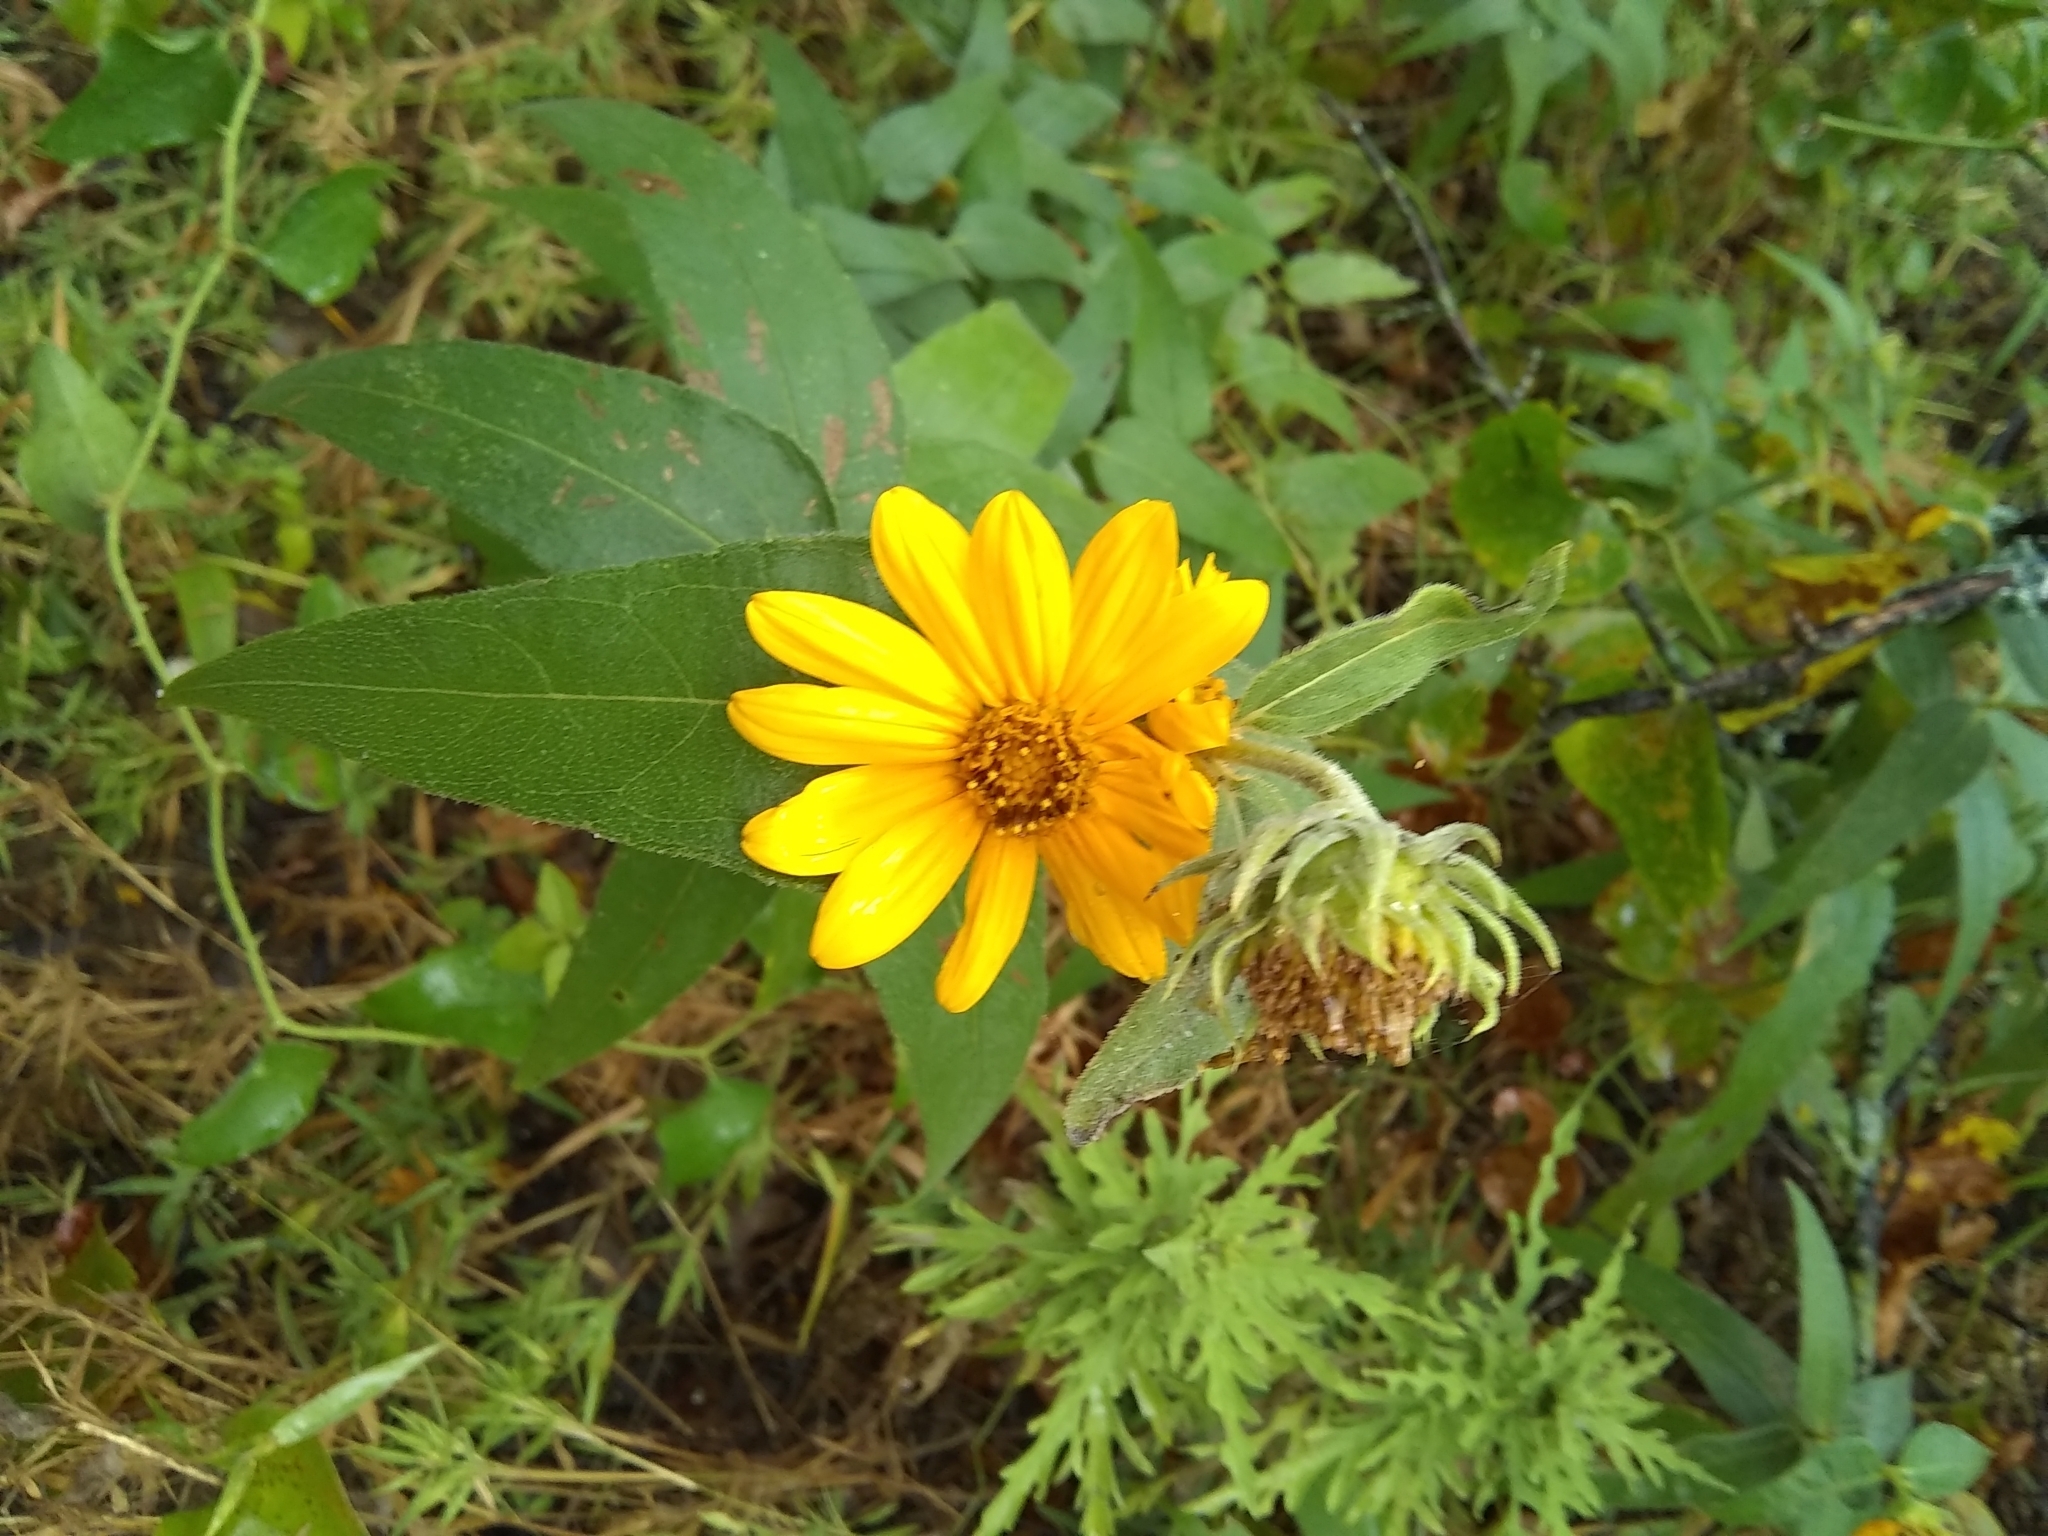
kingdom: Plantae
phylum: Tracheophyta
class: Magnoliopsida
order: Asterales
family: Asteraceae
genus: Helianthus
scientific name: Helianthus hirsutus
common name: Hairy sunflower
